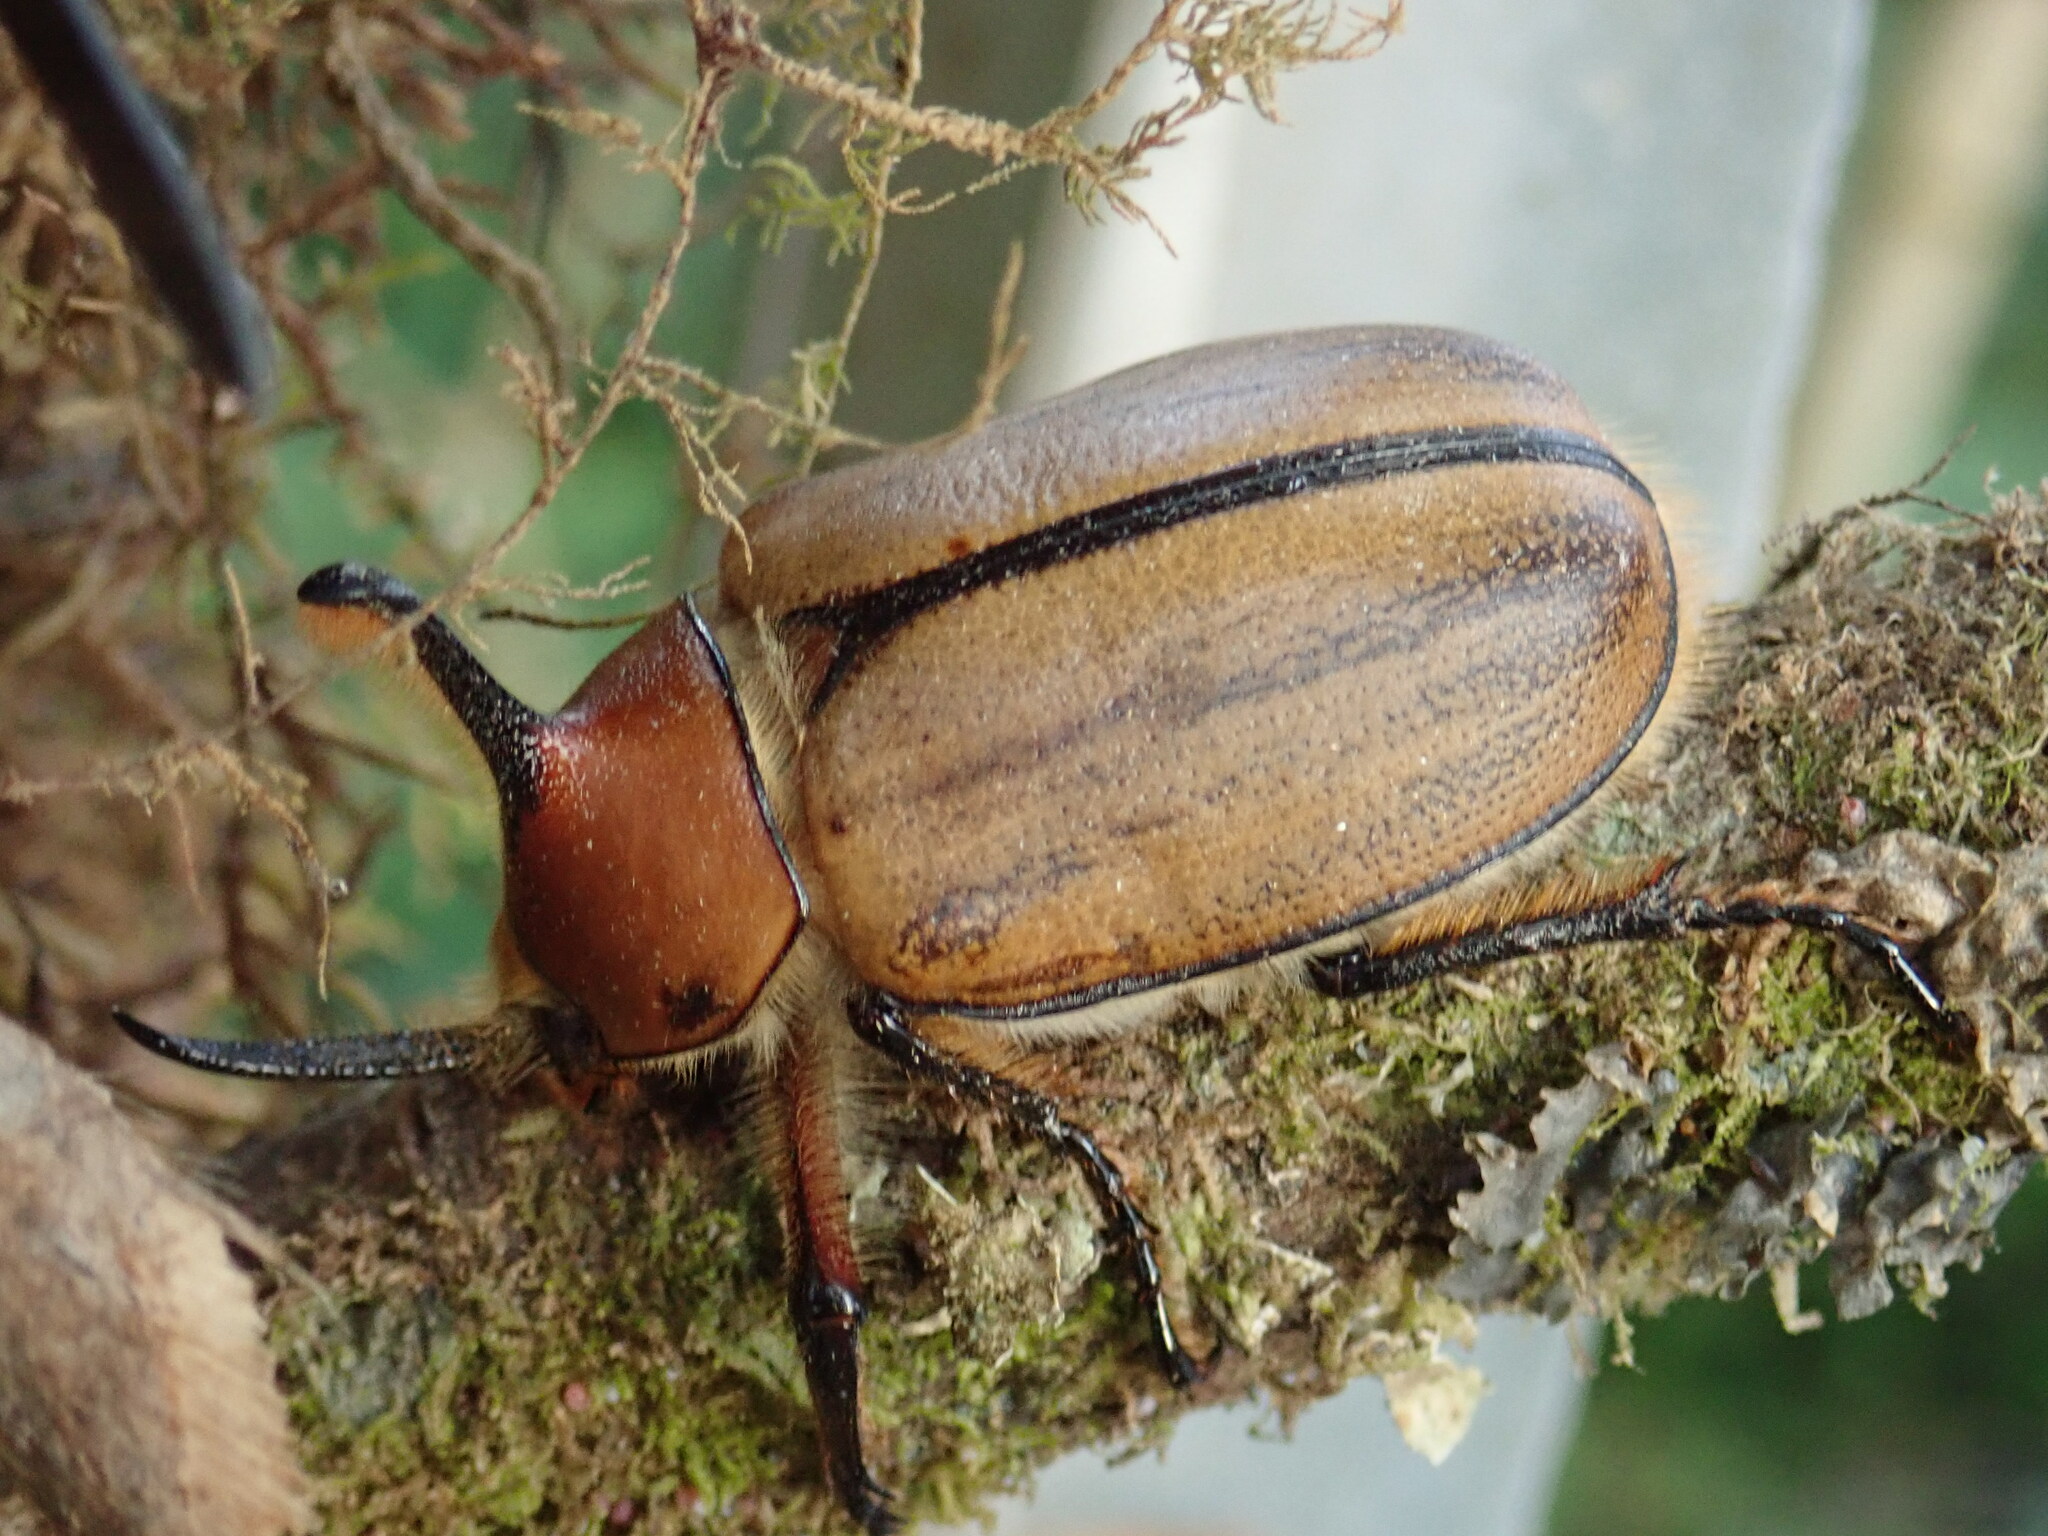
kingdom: Animalia
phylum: Arthropoda
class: Insecta
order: Coleoptera
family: Scarabaeidae
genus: Golofa
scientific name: Golofa eacus
